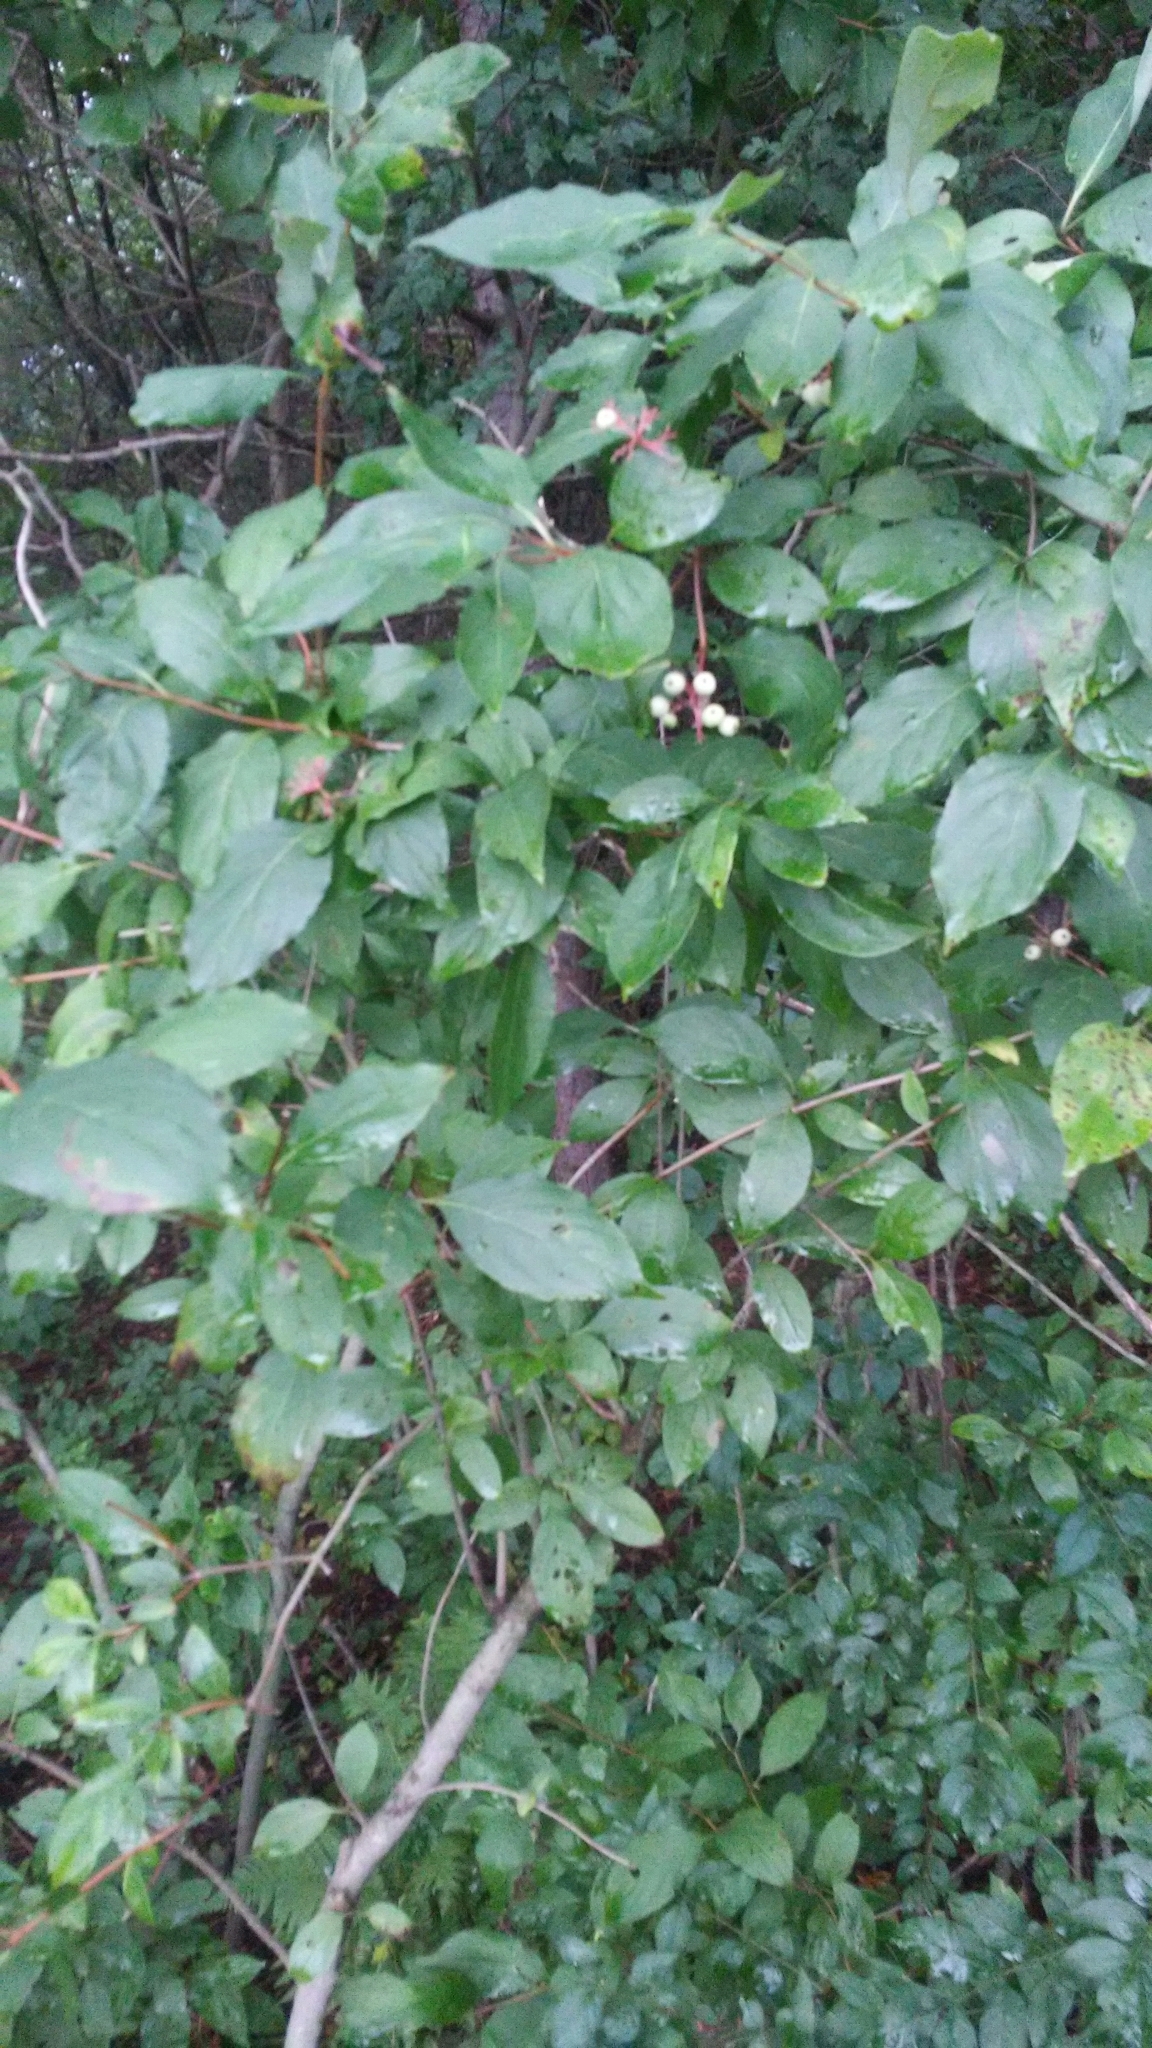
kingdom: Plantae
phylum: Tracheophyta
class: Magnoliopsida
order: Cornales
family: Cornaceae
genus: Cornus
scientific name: Cornus racemosa
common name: Panicled dogwood
